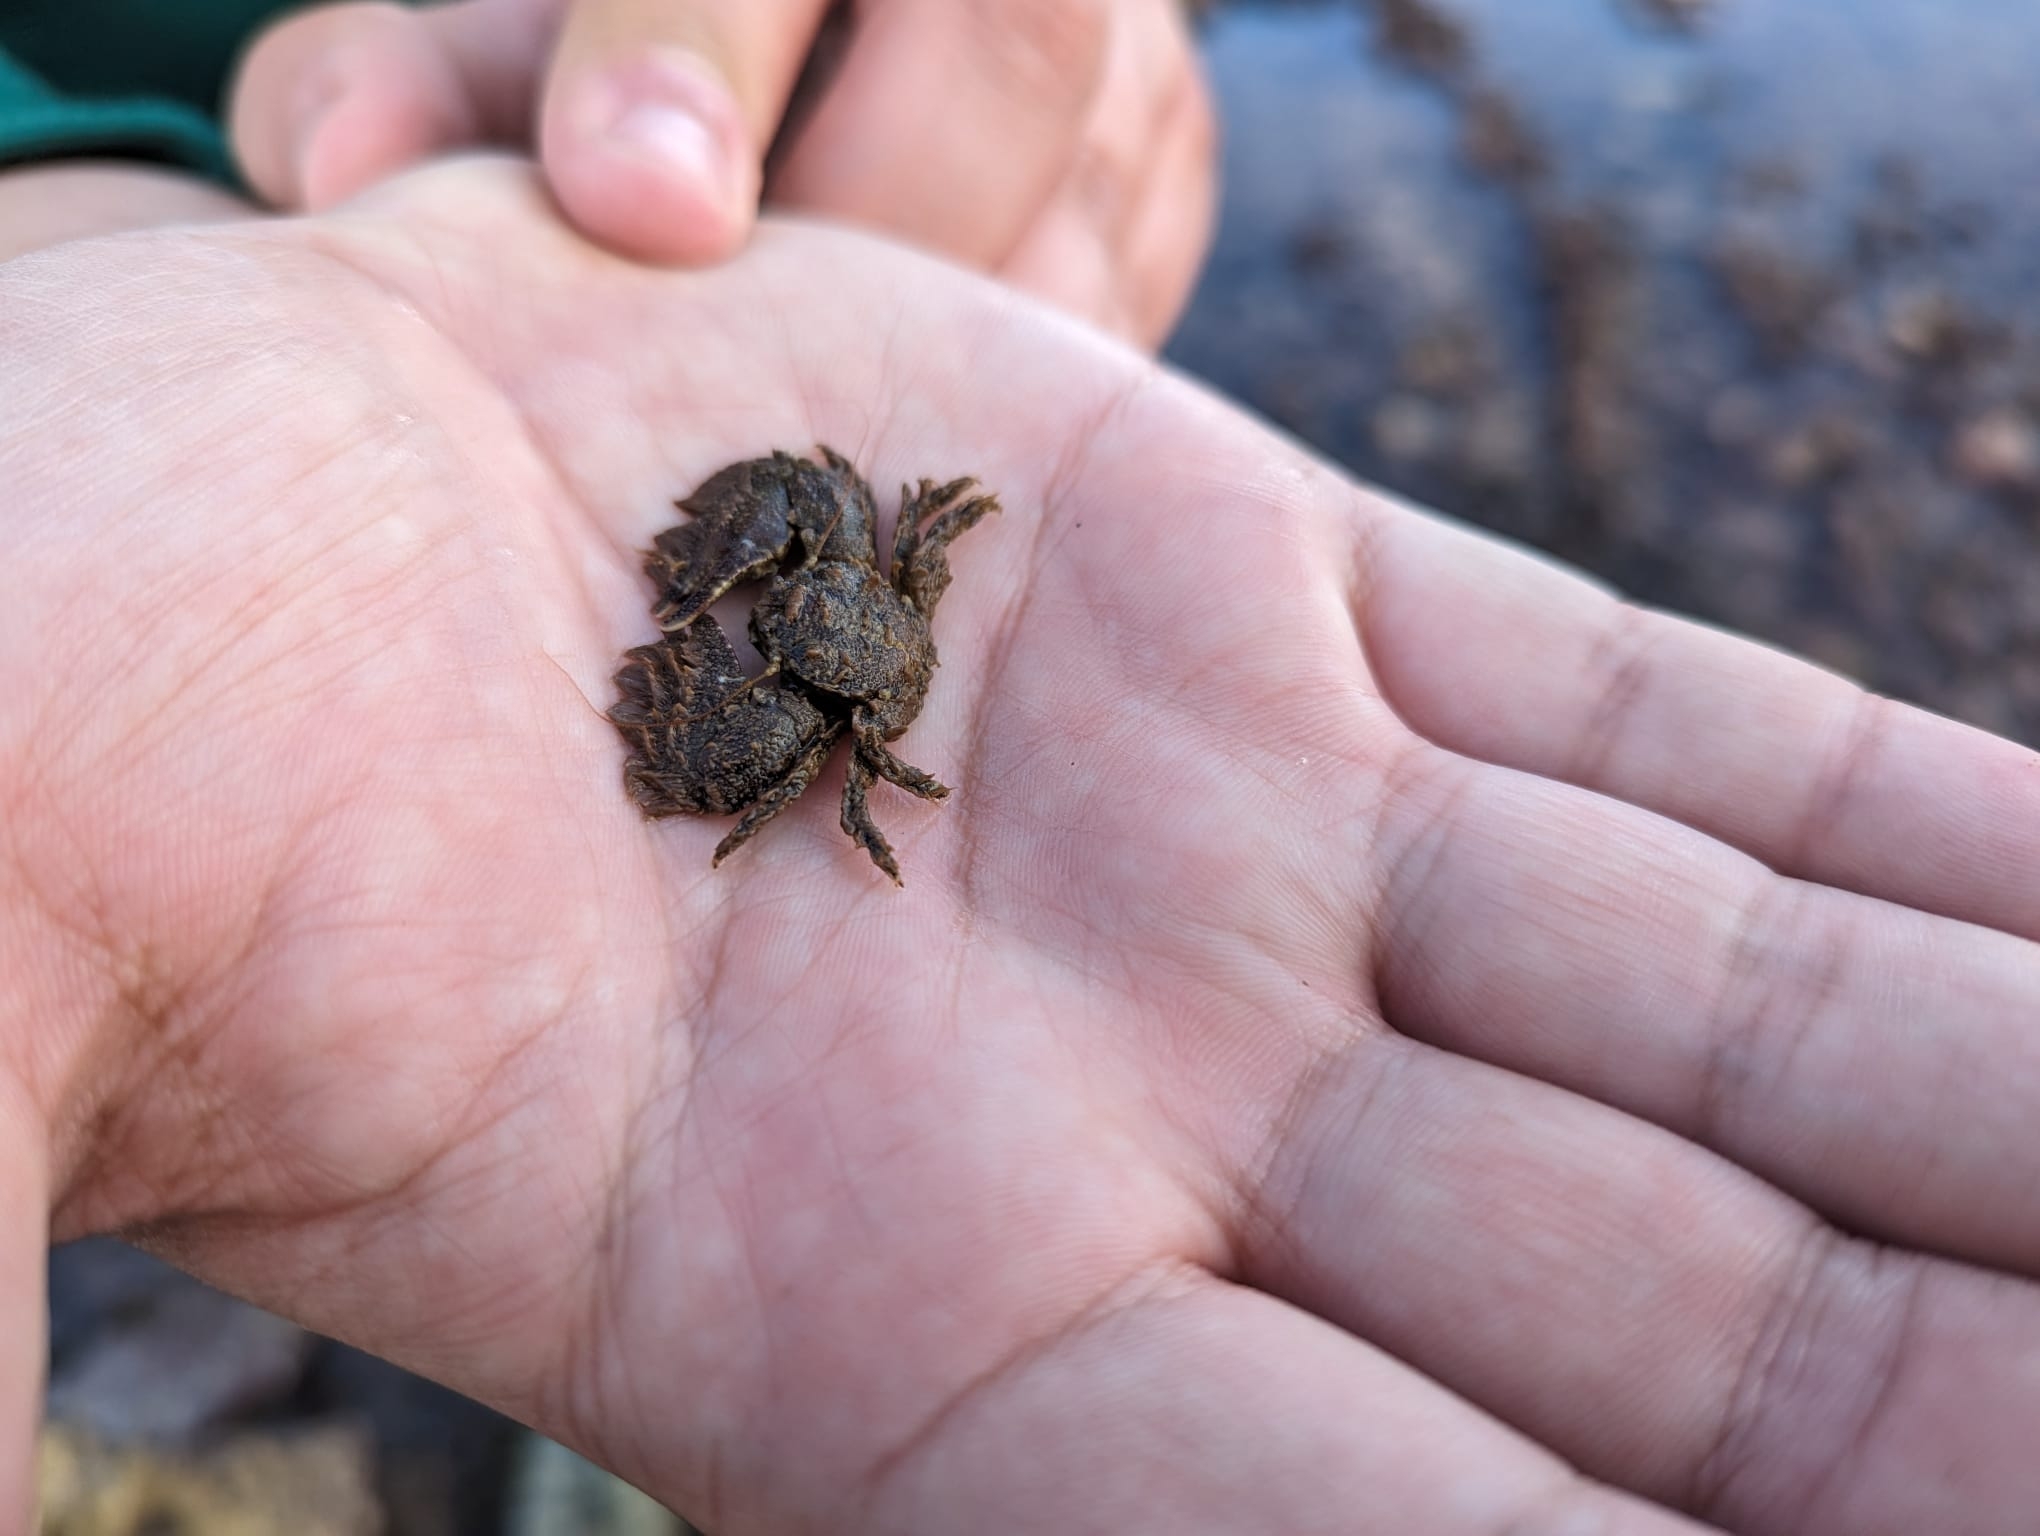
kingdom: Animalia
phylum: Arthropoda
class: Malacostraca
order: Decapoda
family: Porcellanidae
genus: Porcellana
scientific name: Porcellana platycheles
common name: Porcelain crab
